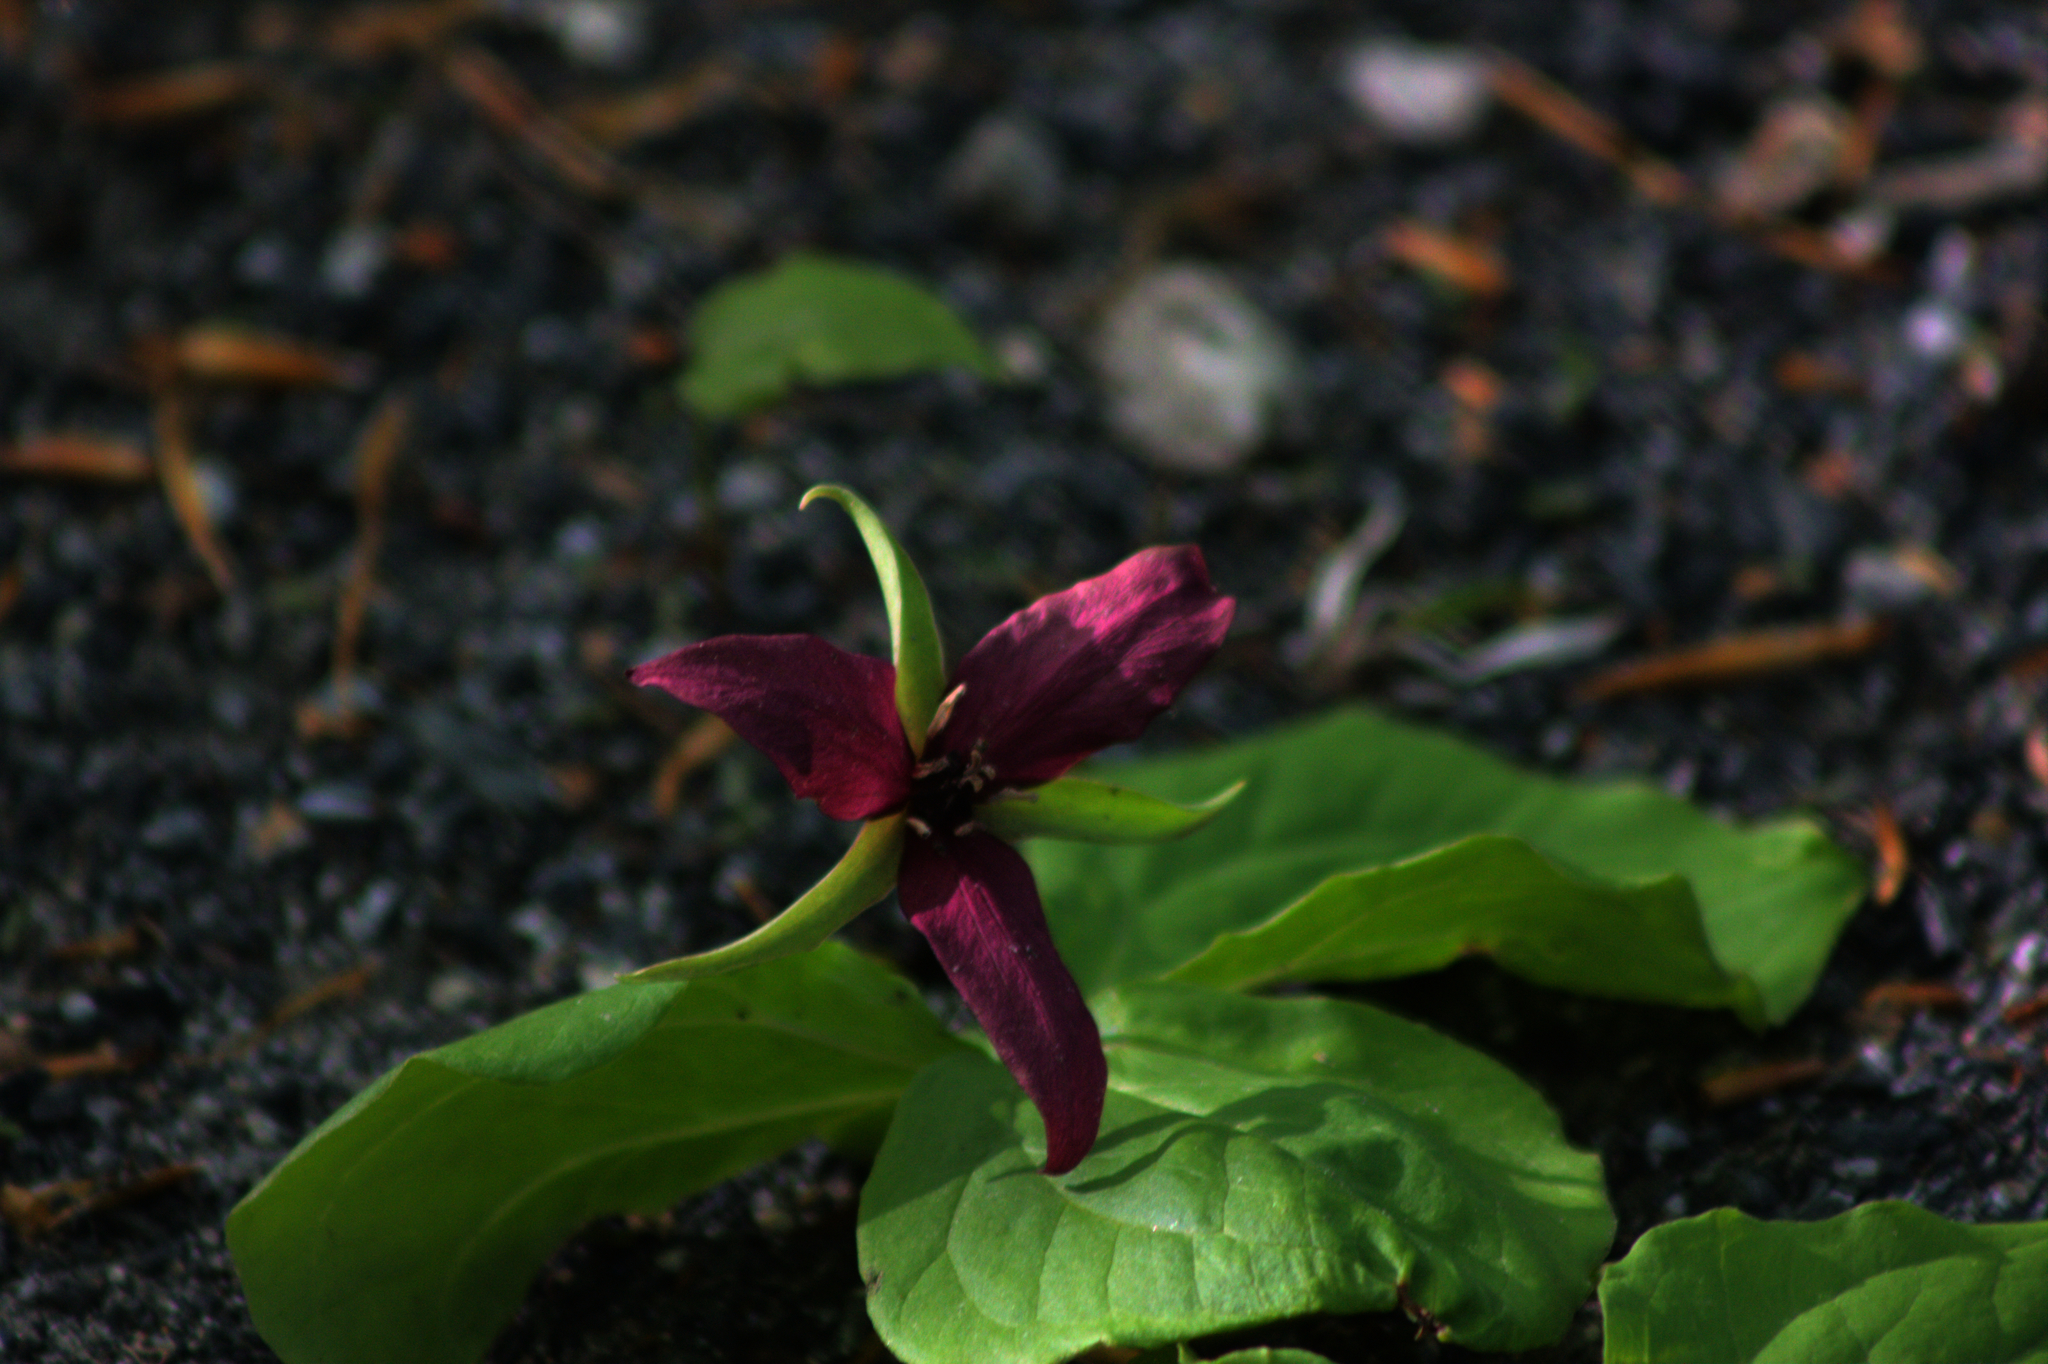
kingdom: Plantae
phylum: Tracheophyta
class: Liliopsida
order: Liliales
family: Melanthiaceae
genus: Trillium
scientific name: Trillium erectum
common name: Purple trillium
